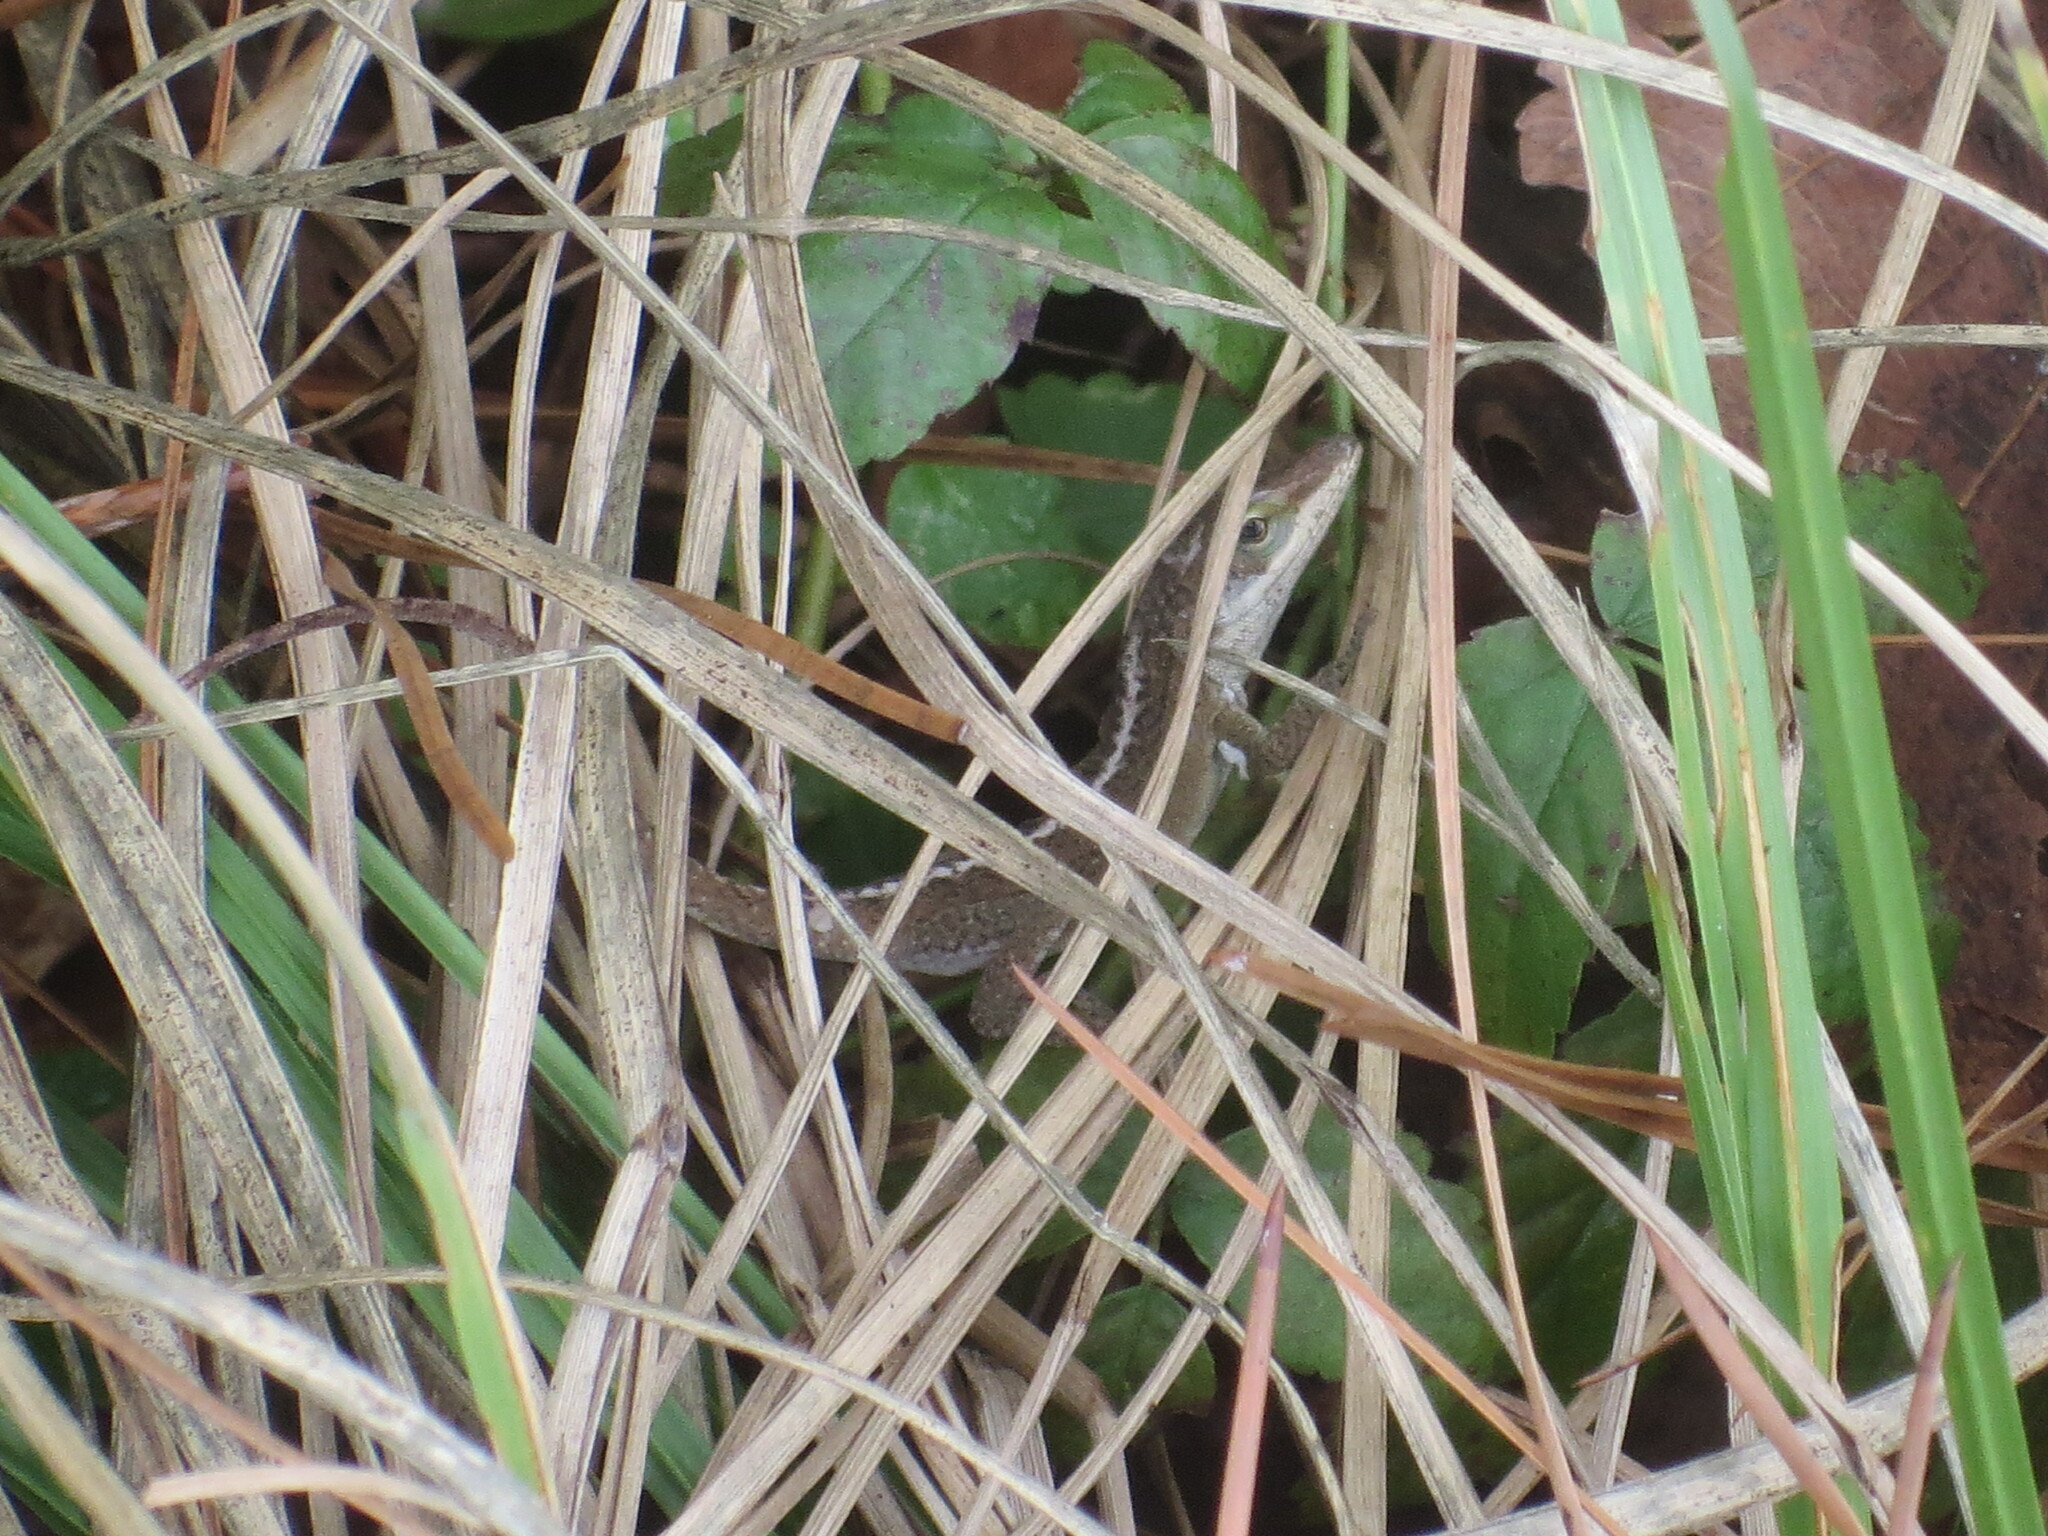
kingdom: Animalia
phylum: Chordata
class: Squamata
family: Dactyloidae
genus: Anolis
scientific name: Anolis carolinensis
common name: Green anole
